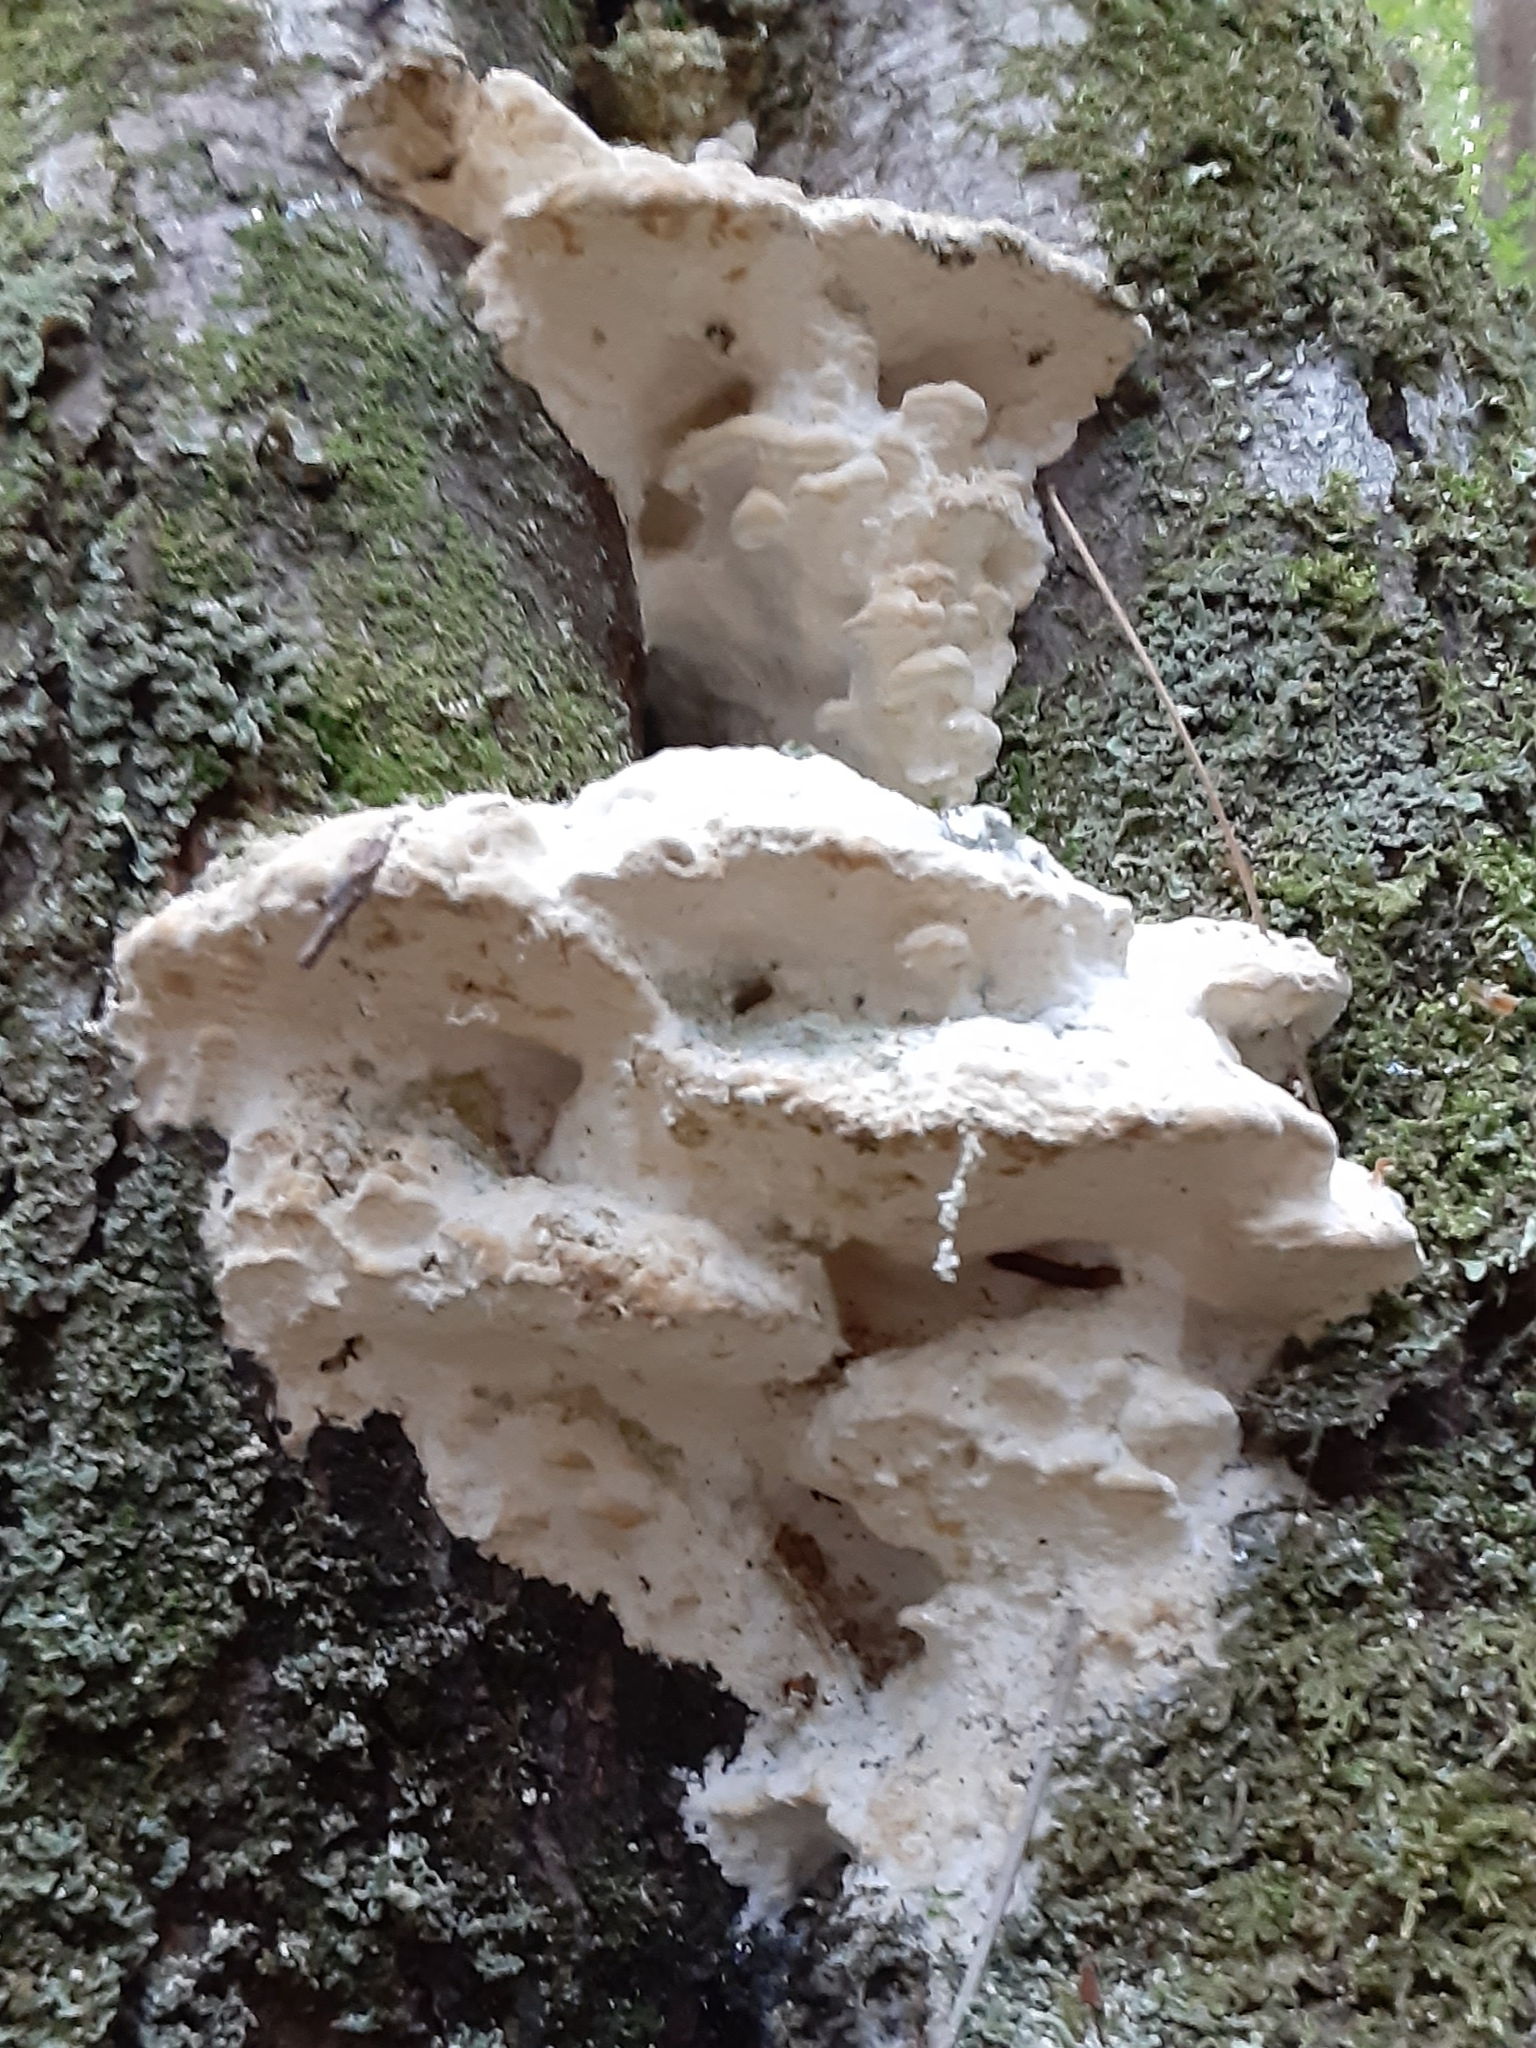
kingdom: Fungi
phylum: Basidiomycota
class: Agaricomycetes
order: Hymenochaetales
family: Oxyporaceae
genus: Oxyporus
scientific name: Oxyporus populinus
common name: Poplar bracket
